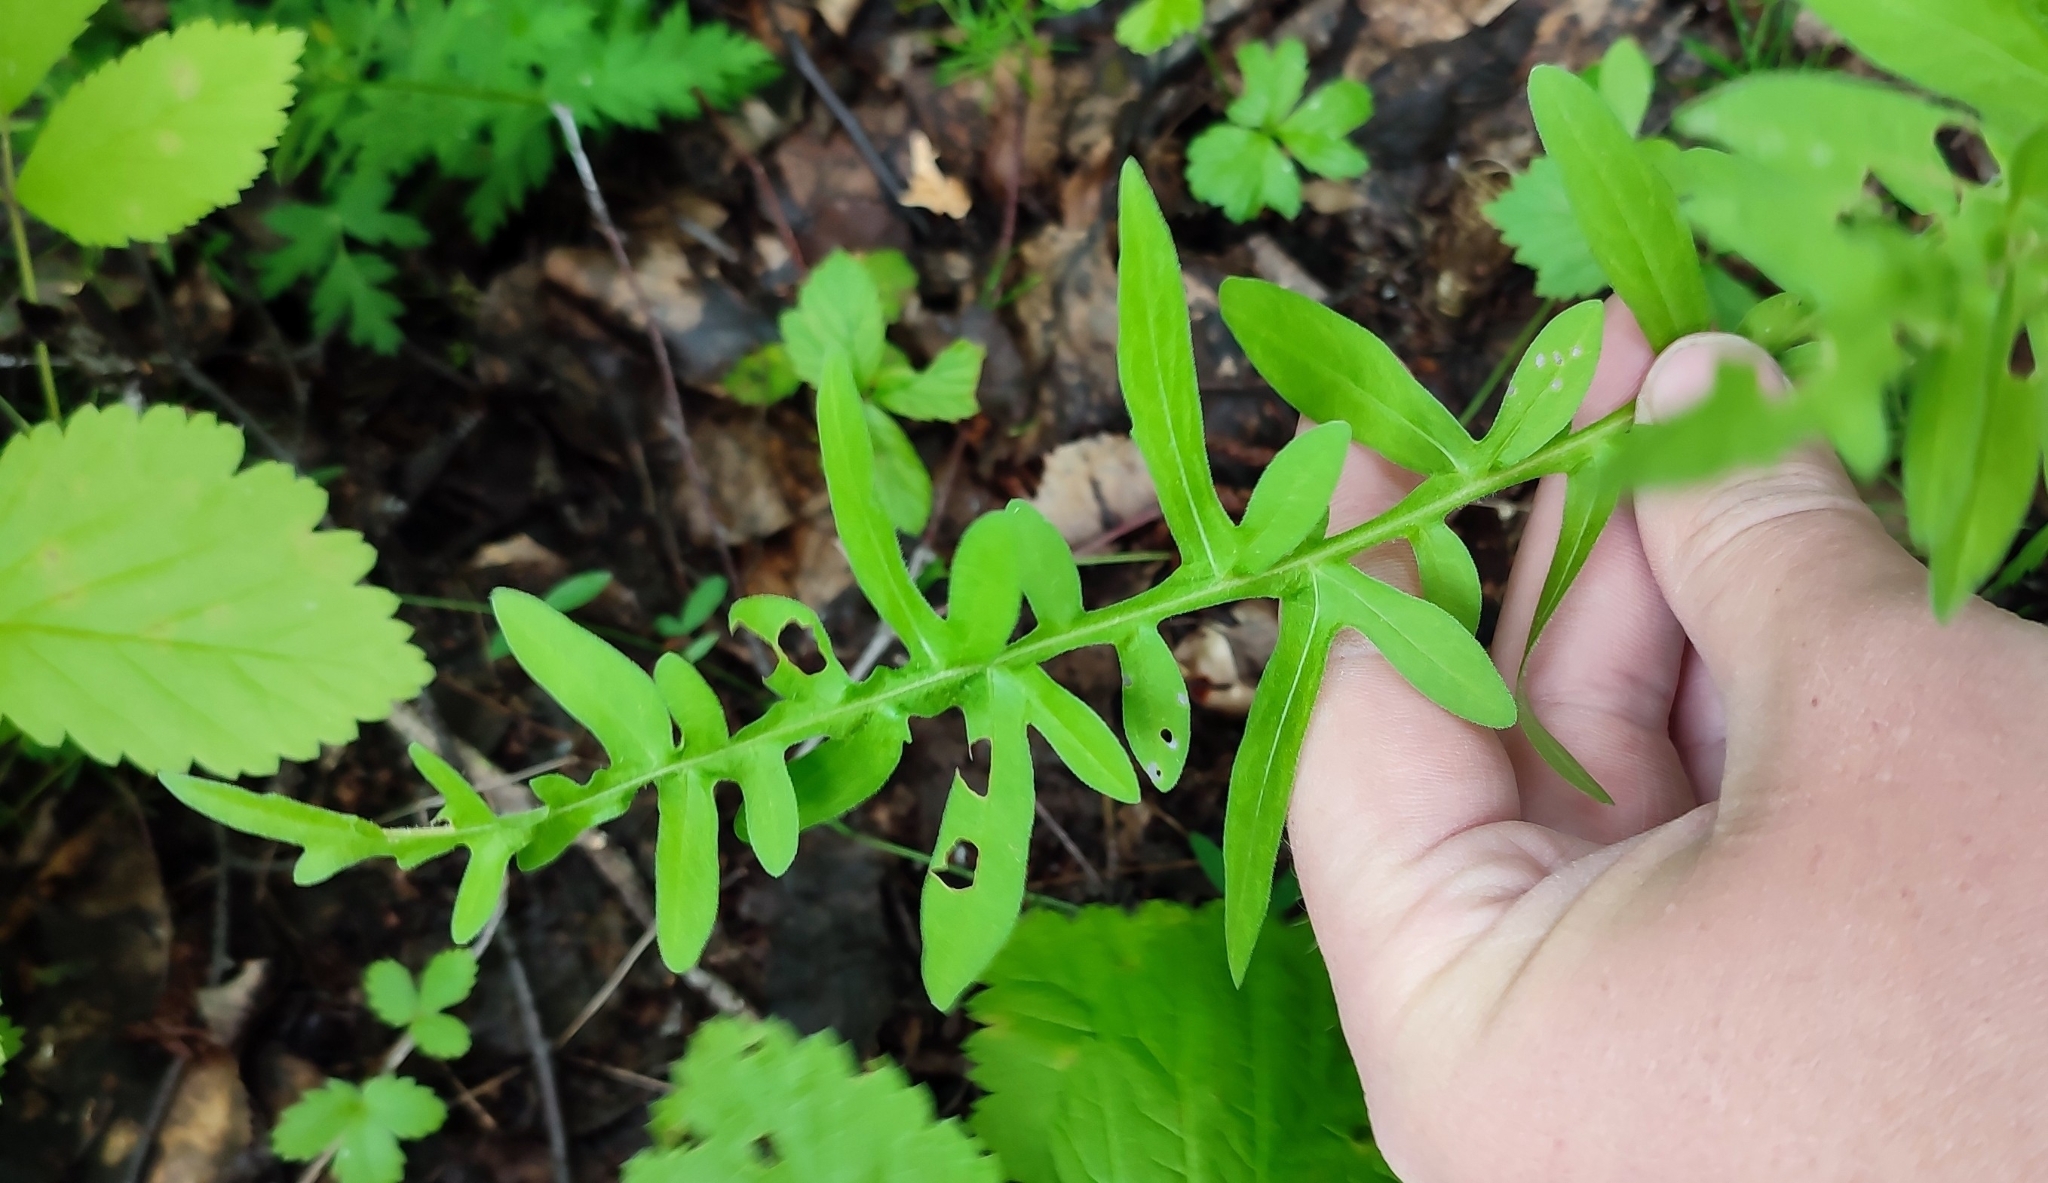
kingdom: Plantae
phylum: Tracheophyta
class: Magnoliopsida
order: Asterales
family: Asteraceae
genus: Centaurea
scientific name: Centaurea scabiosa
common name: Greater knapweed
